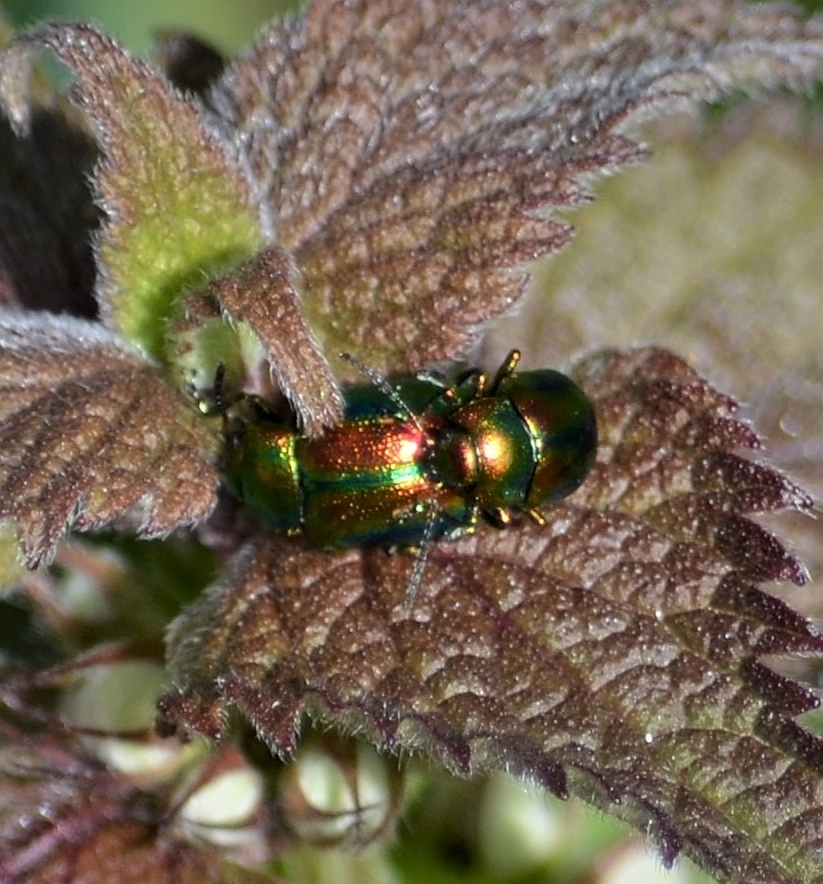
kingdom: Animalia
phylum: Arthropoda
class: Insecta
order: Coleoptera
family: Chrysomelidae
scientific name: Chrysomelidae
